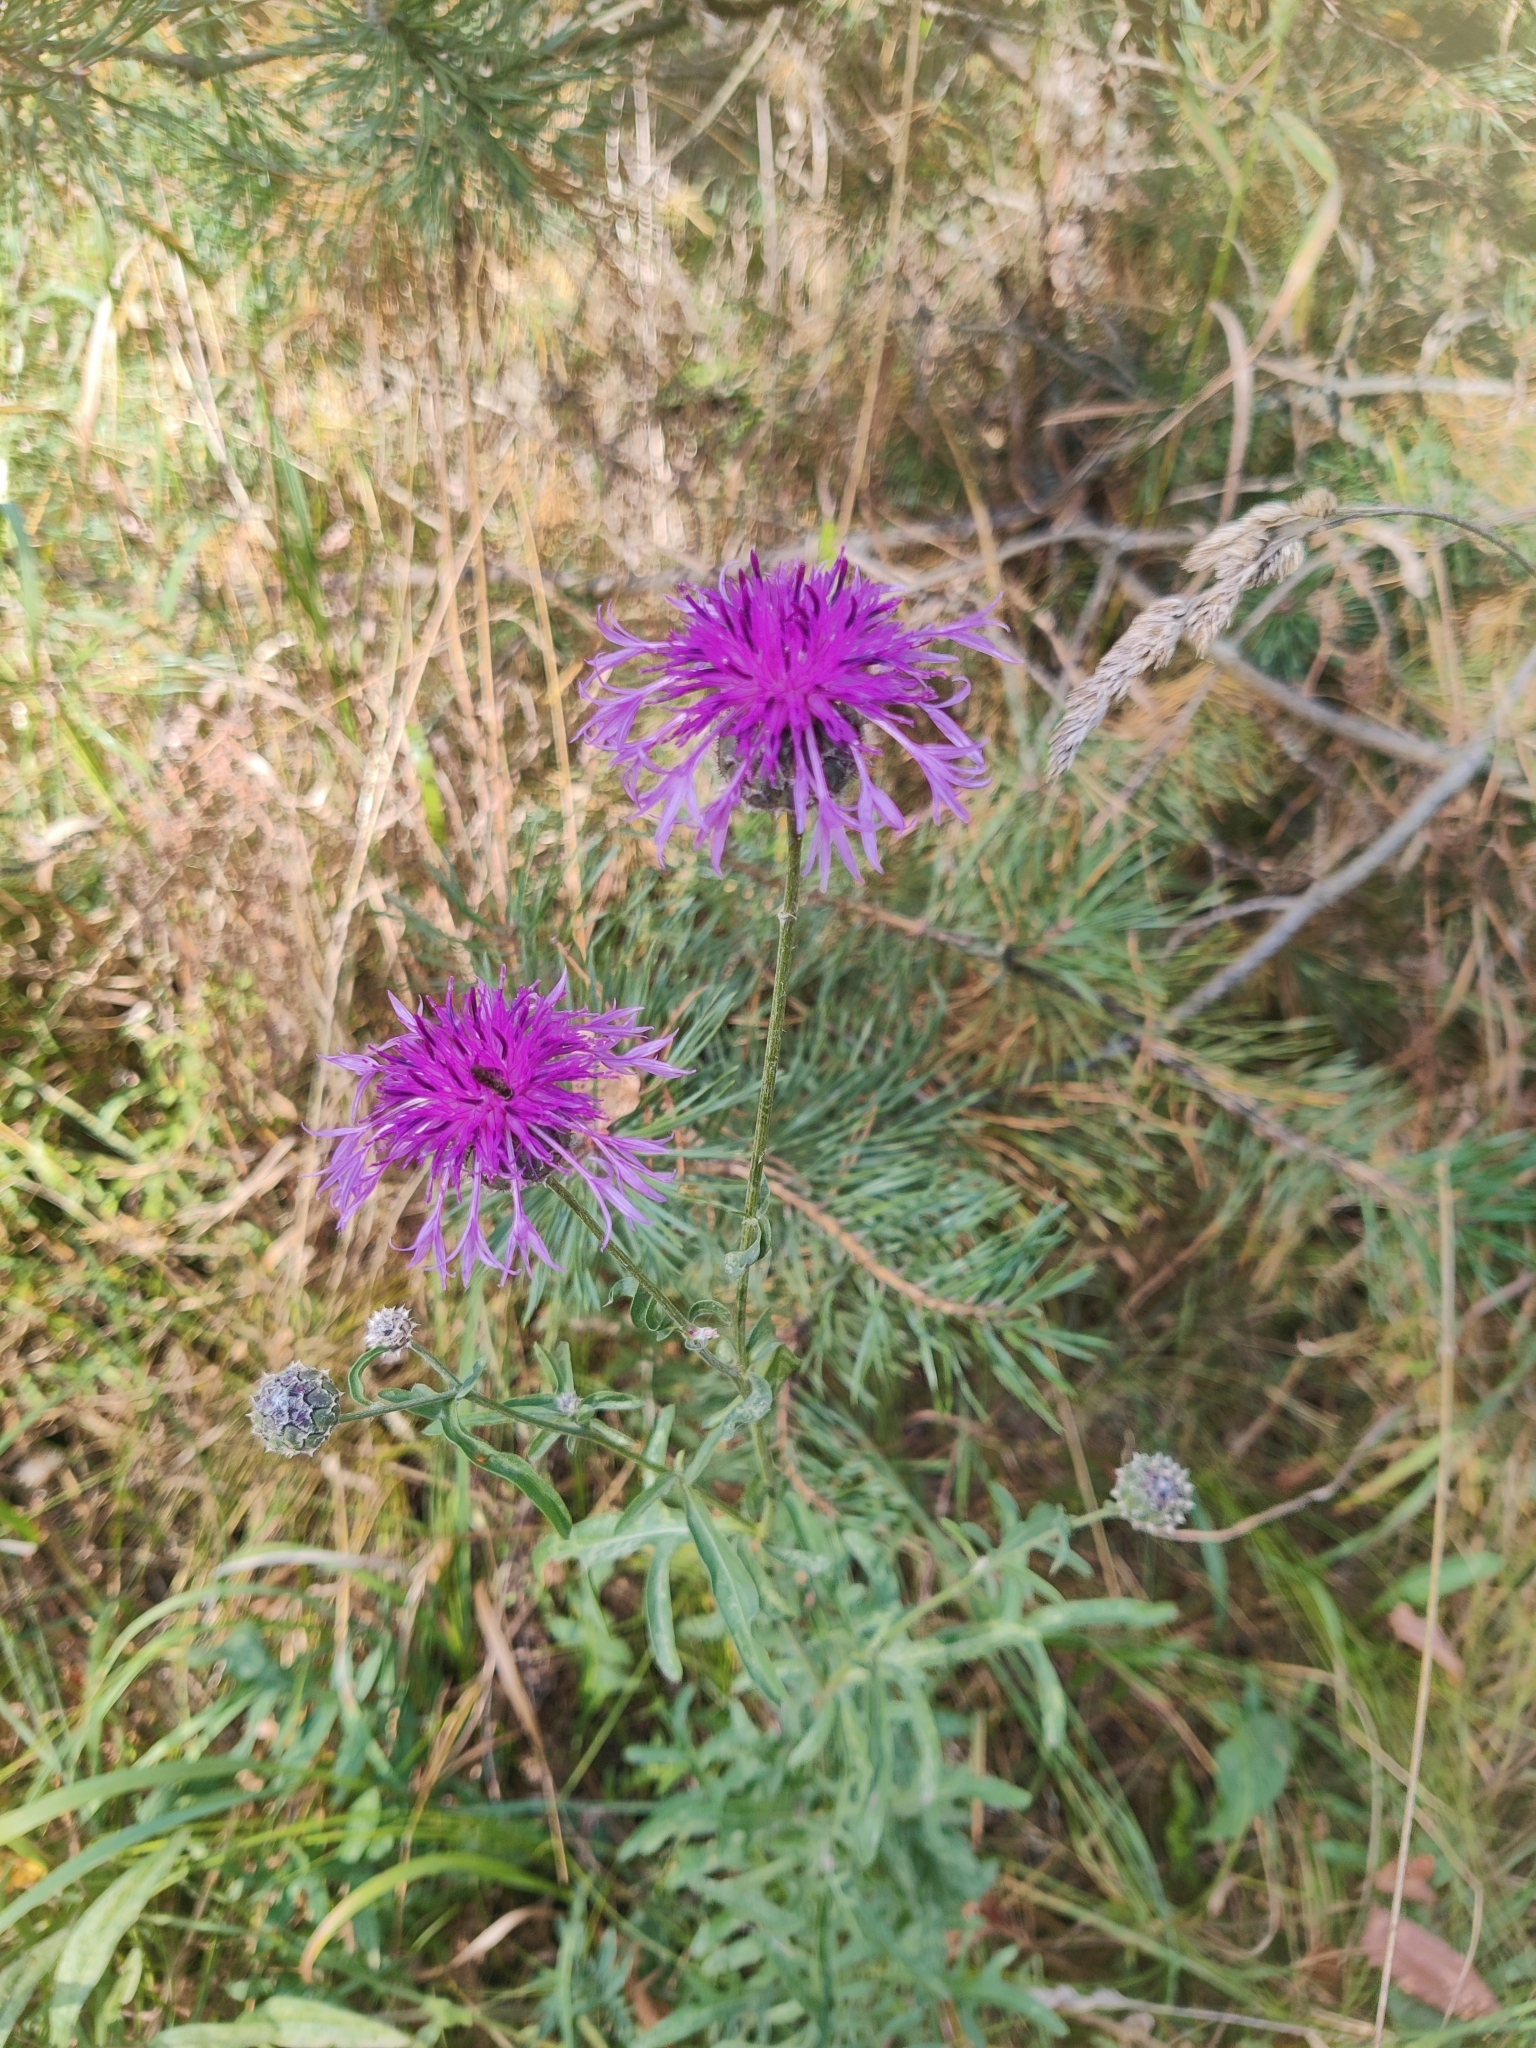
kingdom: Plantae
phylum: Tracheophyta
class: Magnoliopsida
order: Asterales
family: Asteraceae
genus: Centaurea
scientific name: Centaurea scabiosa
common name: Greater knapweed
